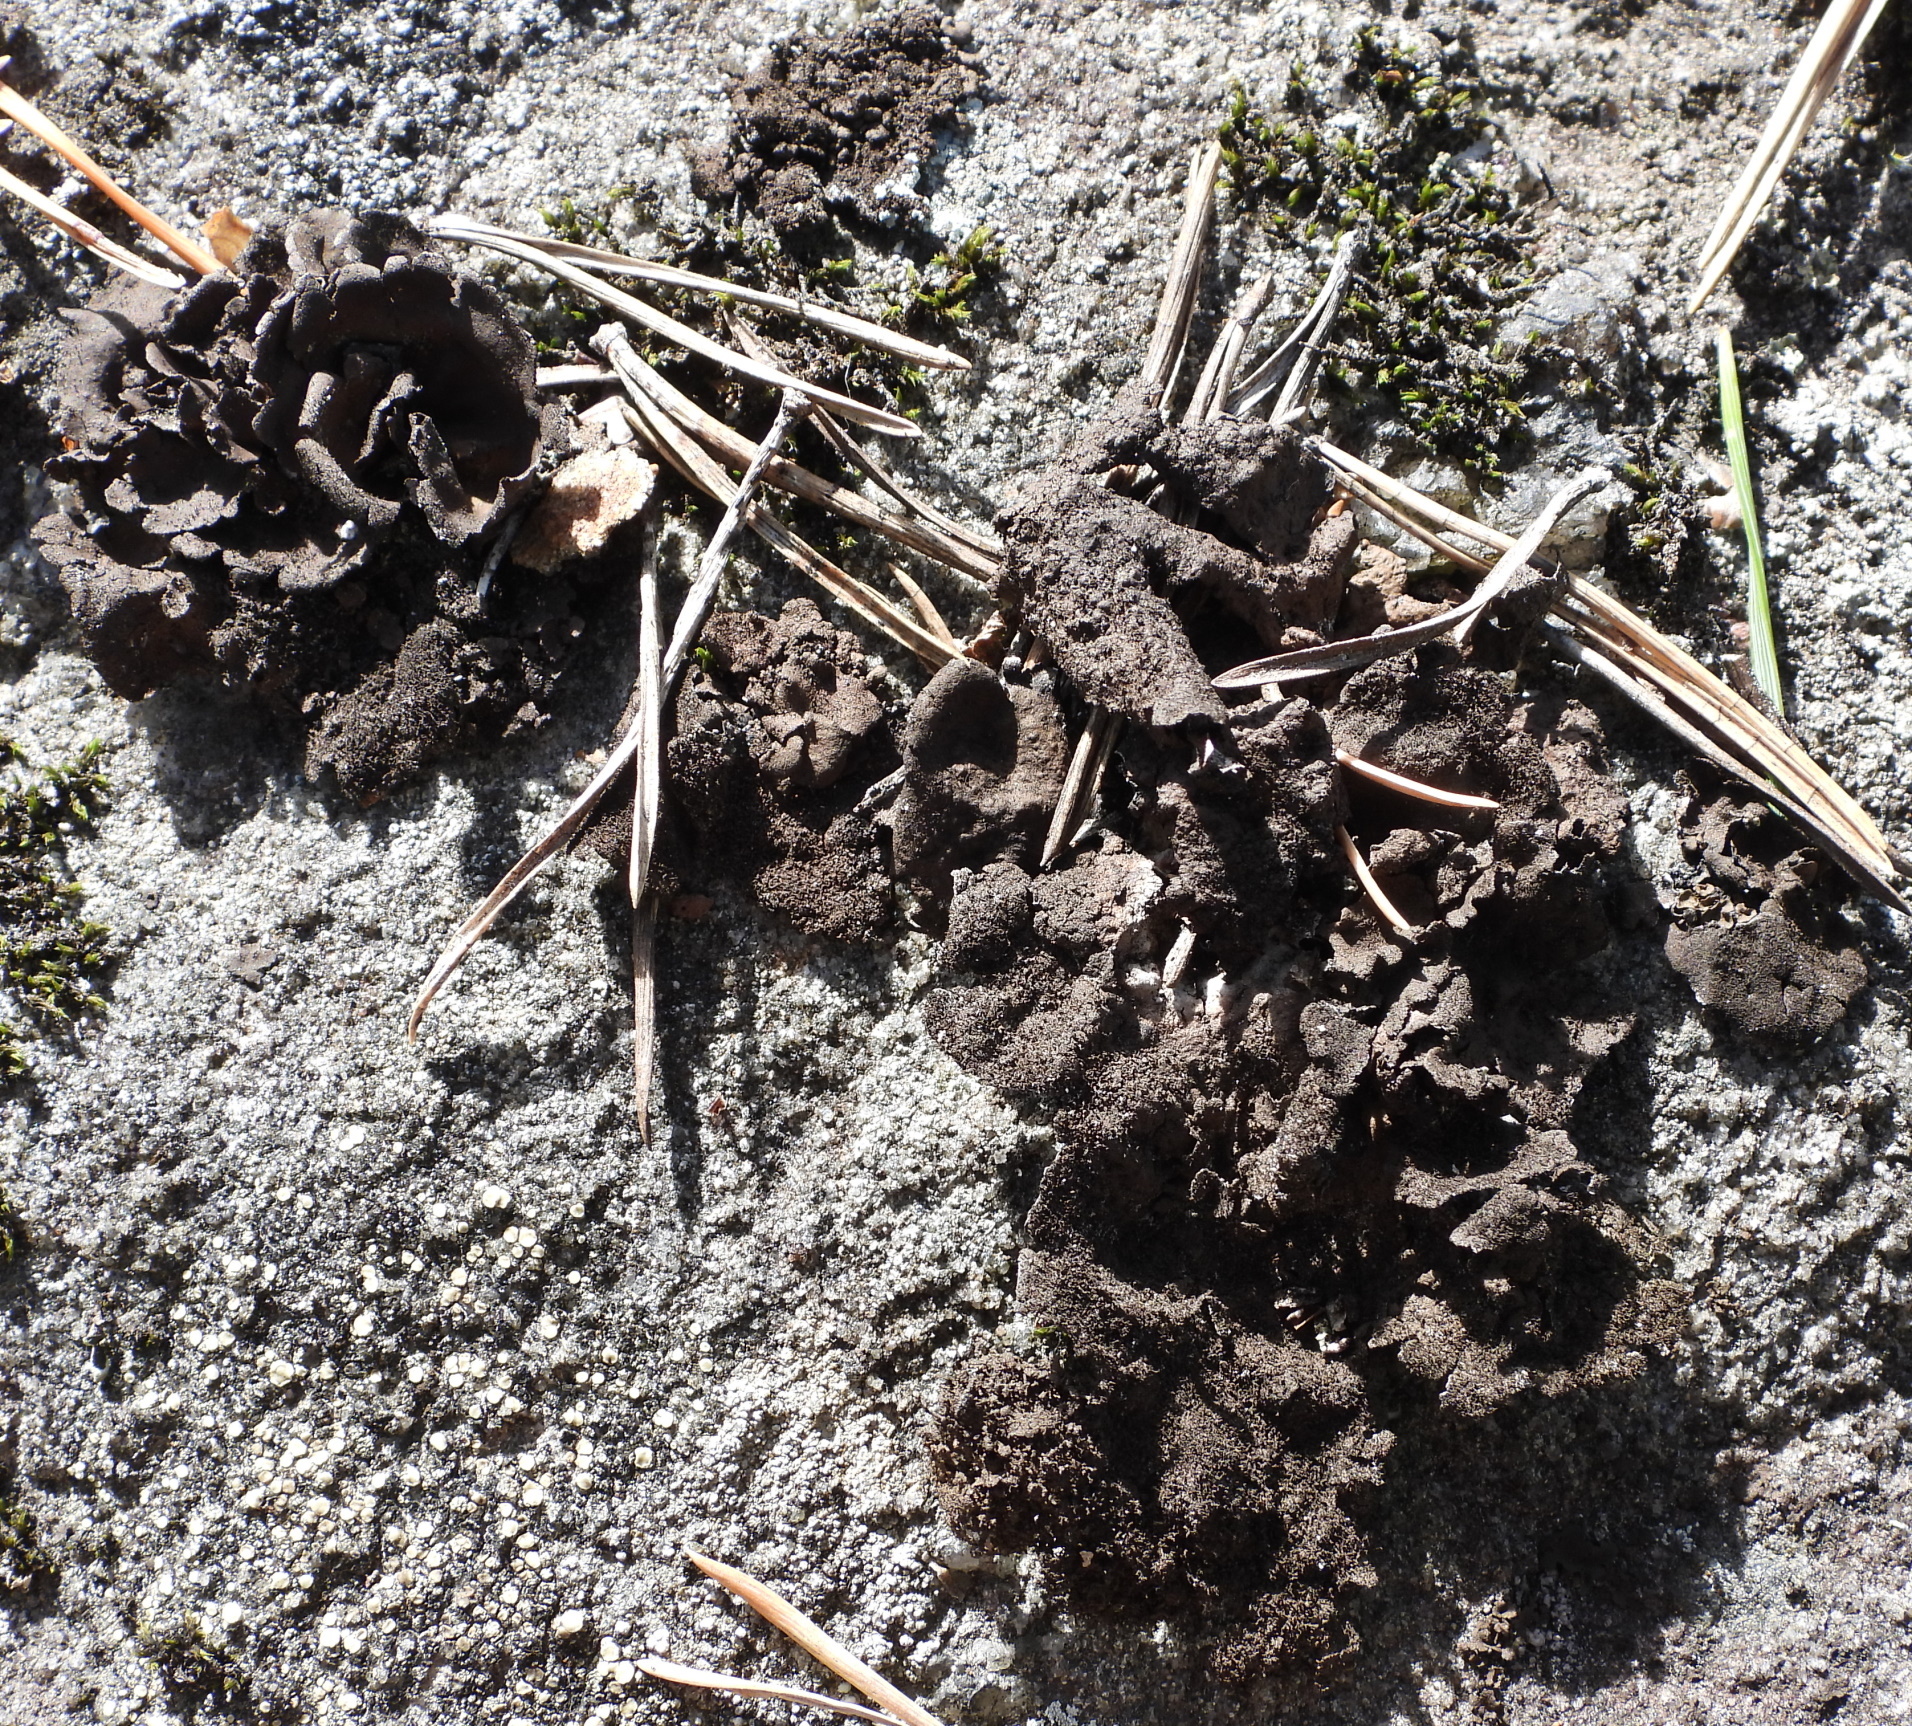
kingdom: Fungi
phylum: Ascomycota
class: Lecanoromycetes
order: Umbilicariales
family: Umbilicariaceae
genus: Umbilicaria
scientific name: Umbilicaria deusta
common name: Peppered rock tripe
